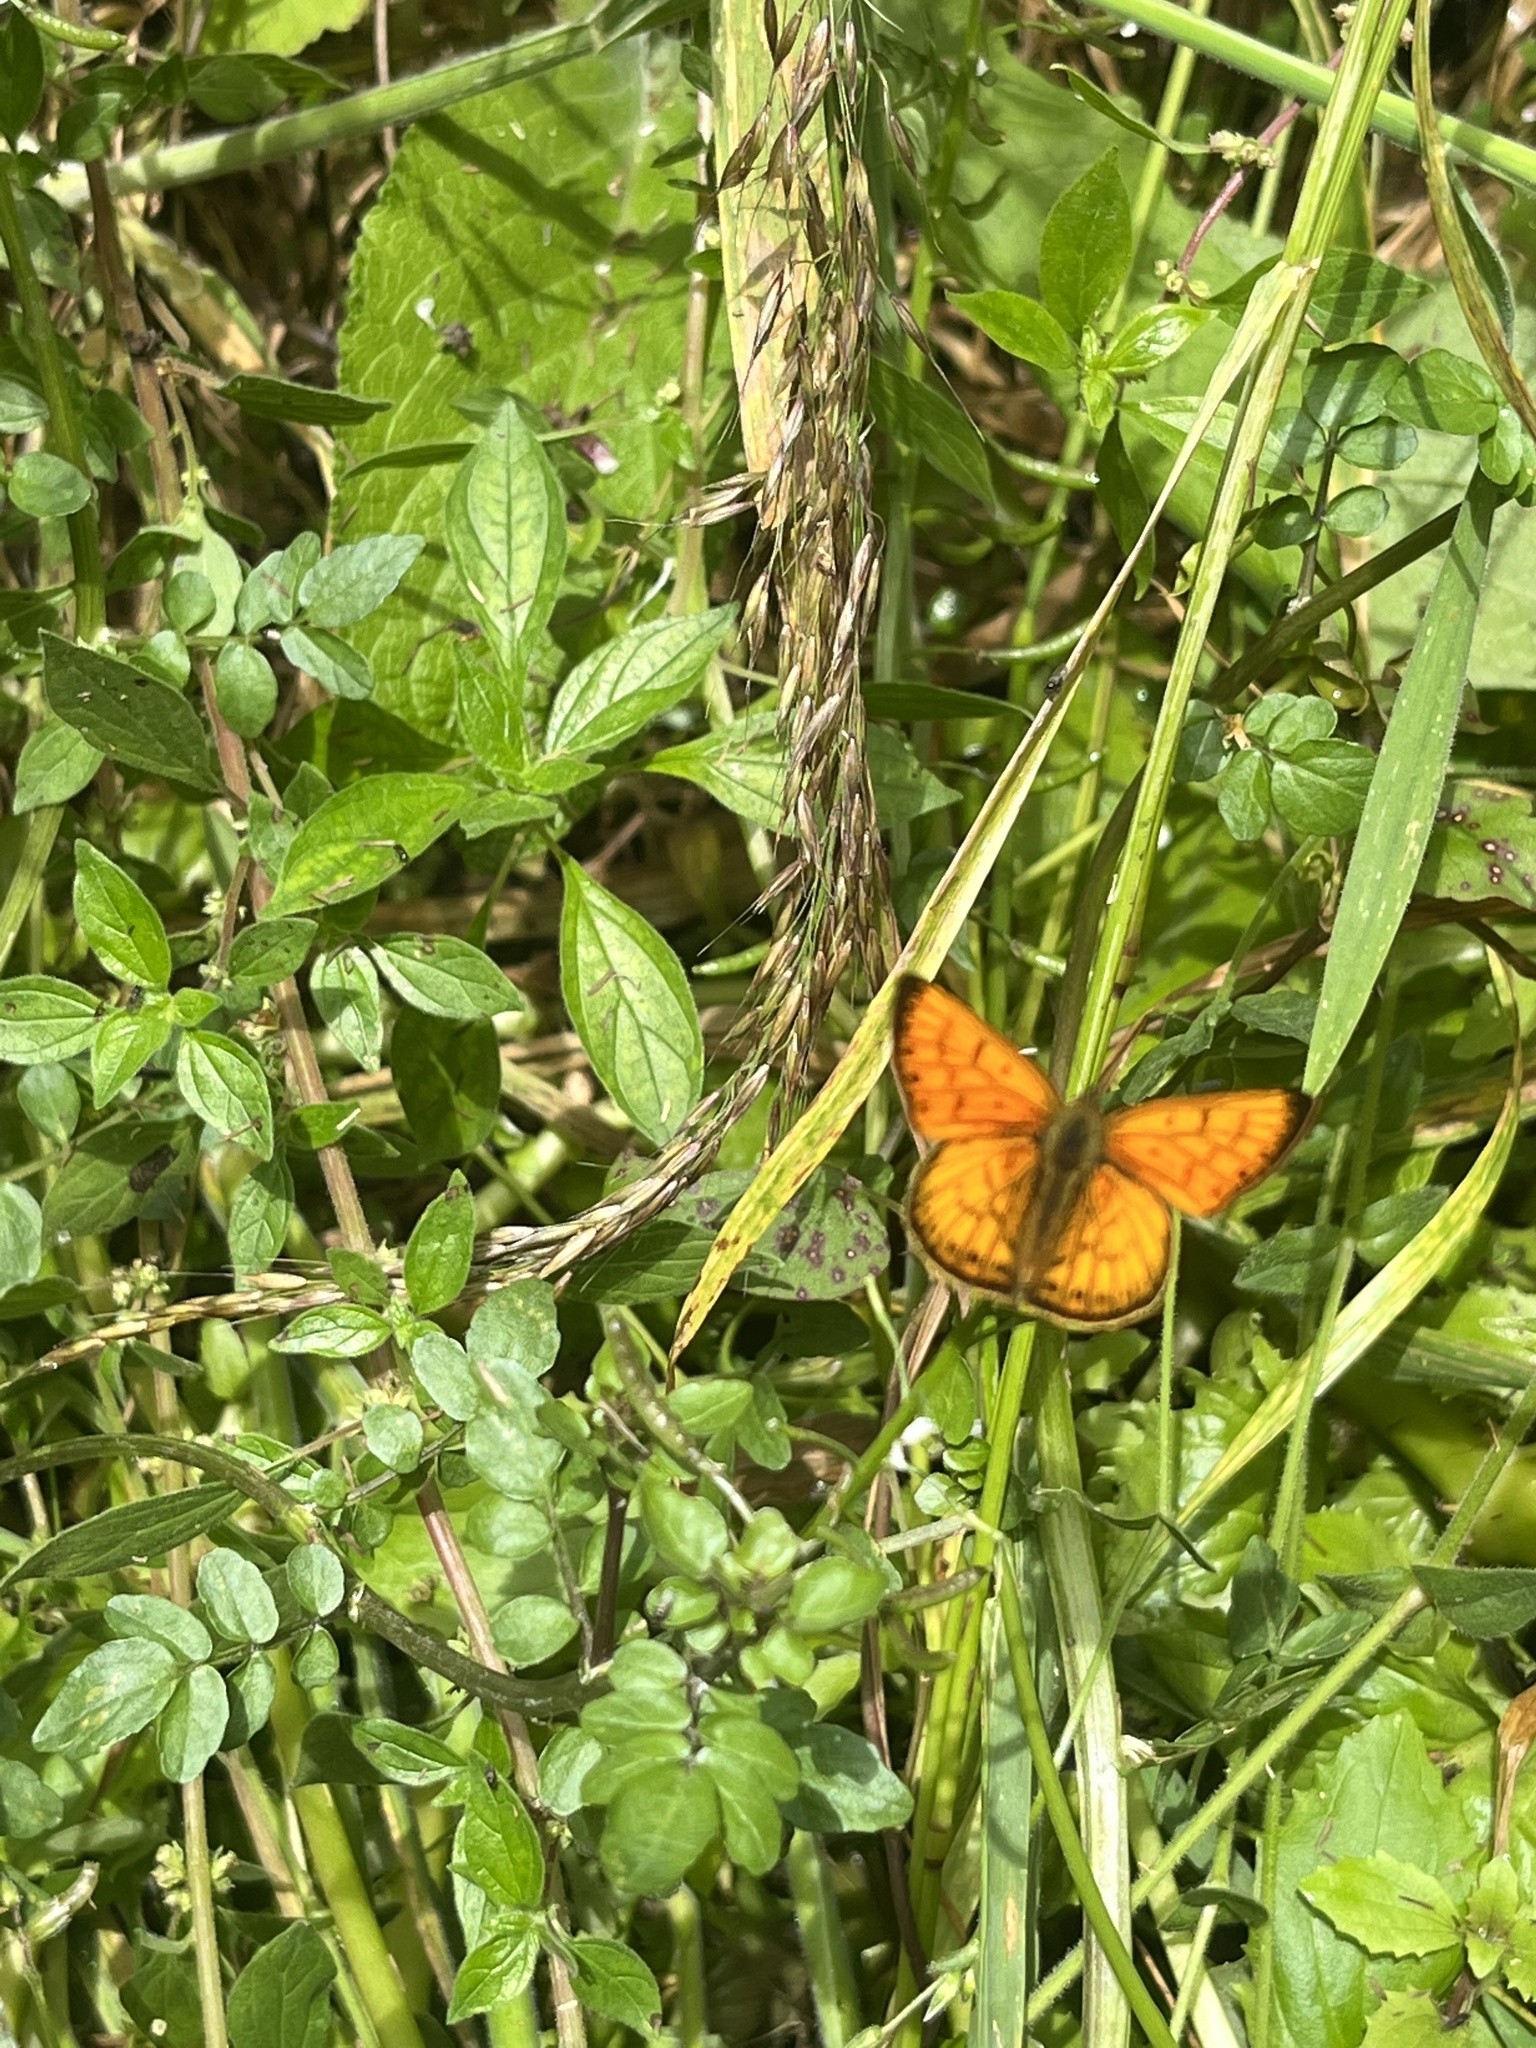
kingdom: Animalia
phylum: Arthropoda
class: Insecta
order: Lepidoptera
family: Lycaenidae
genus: Lycaena
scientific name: Lycaena salustius
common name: North island coastal copper
